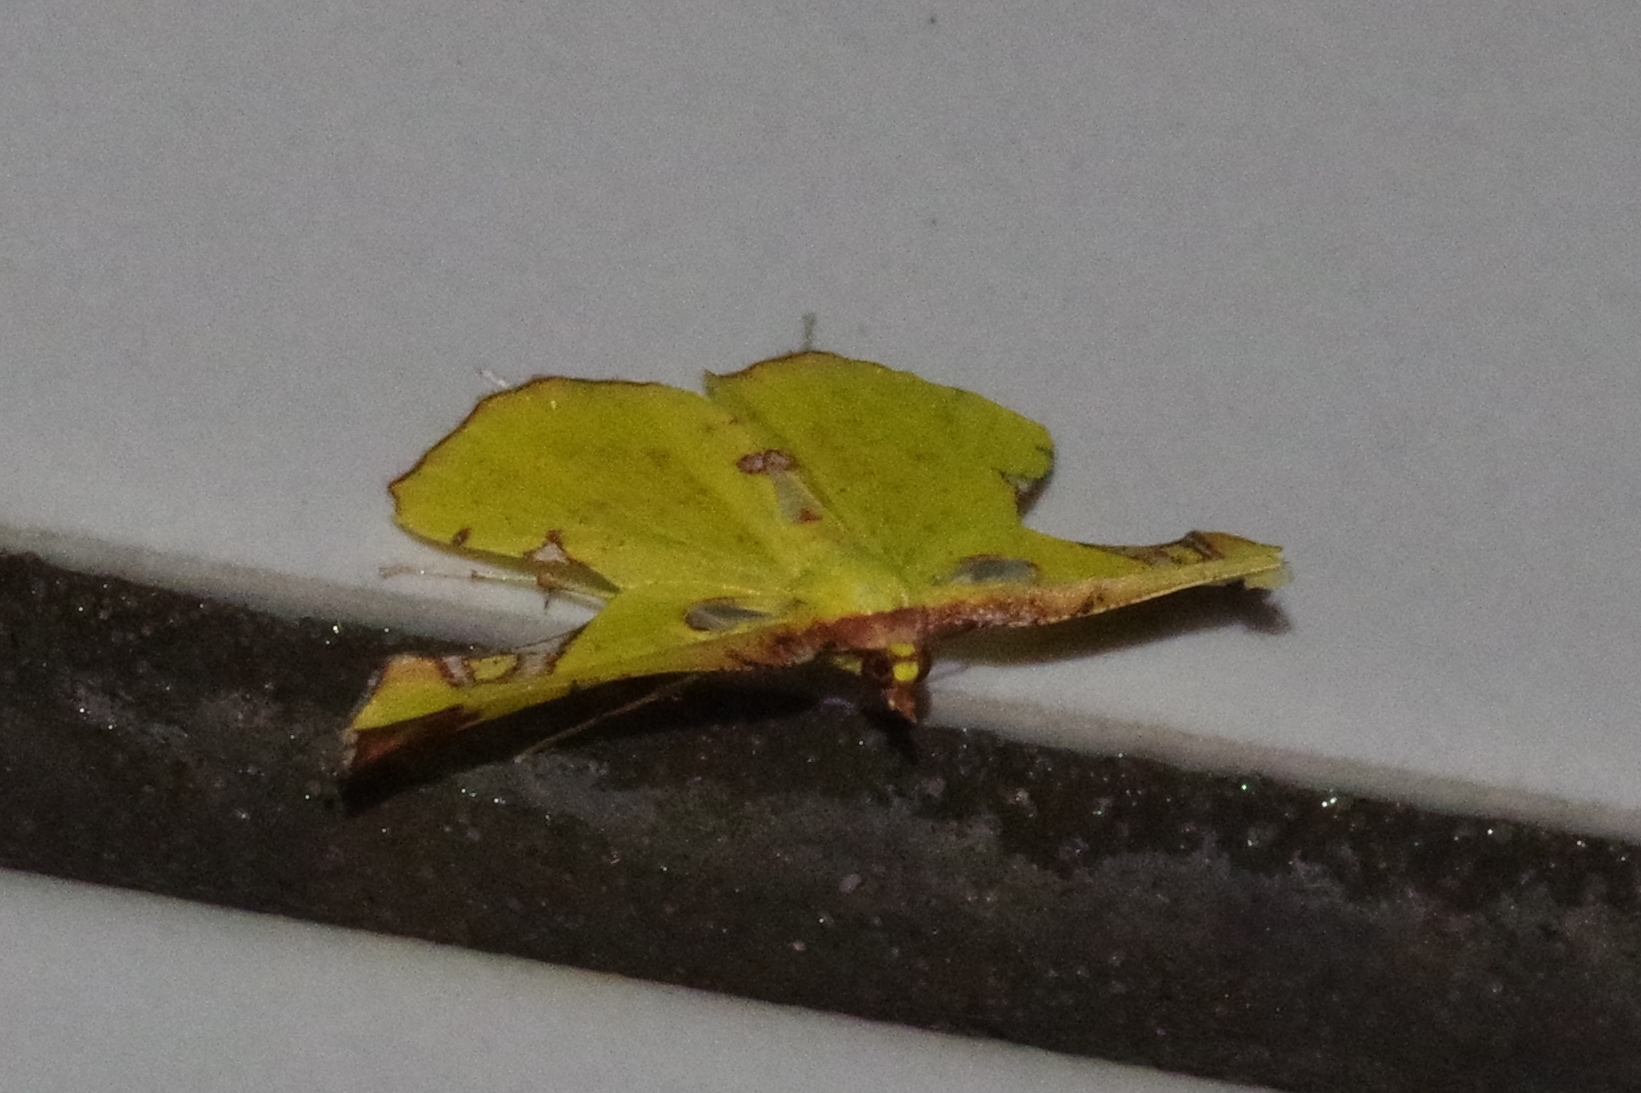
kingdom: Animalia
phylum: Arthropoda
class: Insecta
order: Lepidoptera
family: Geometridae
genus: Corymica
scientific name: Corymica pryeri
